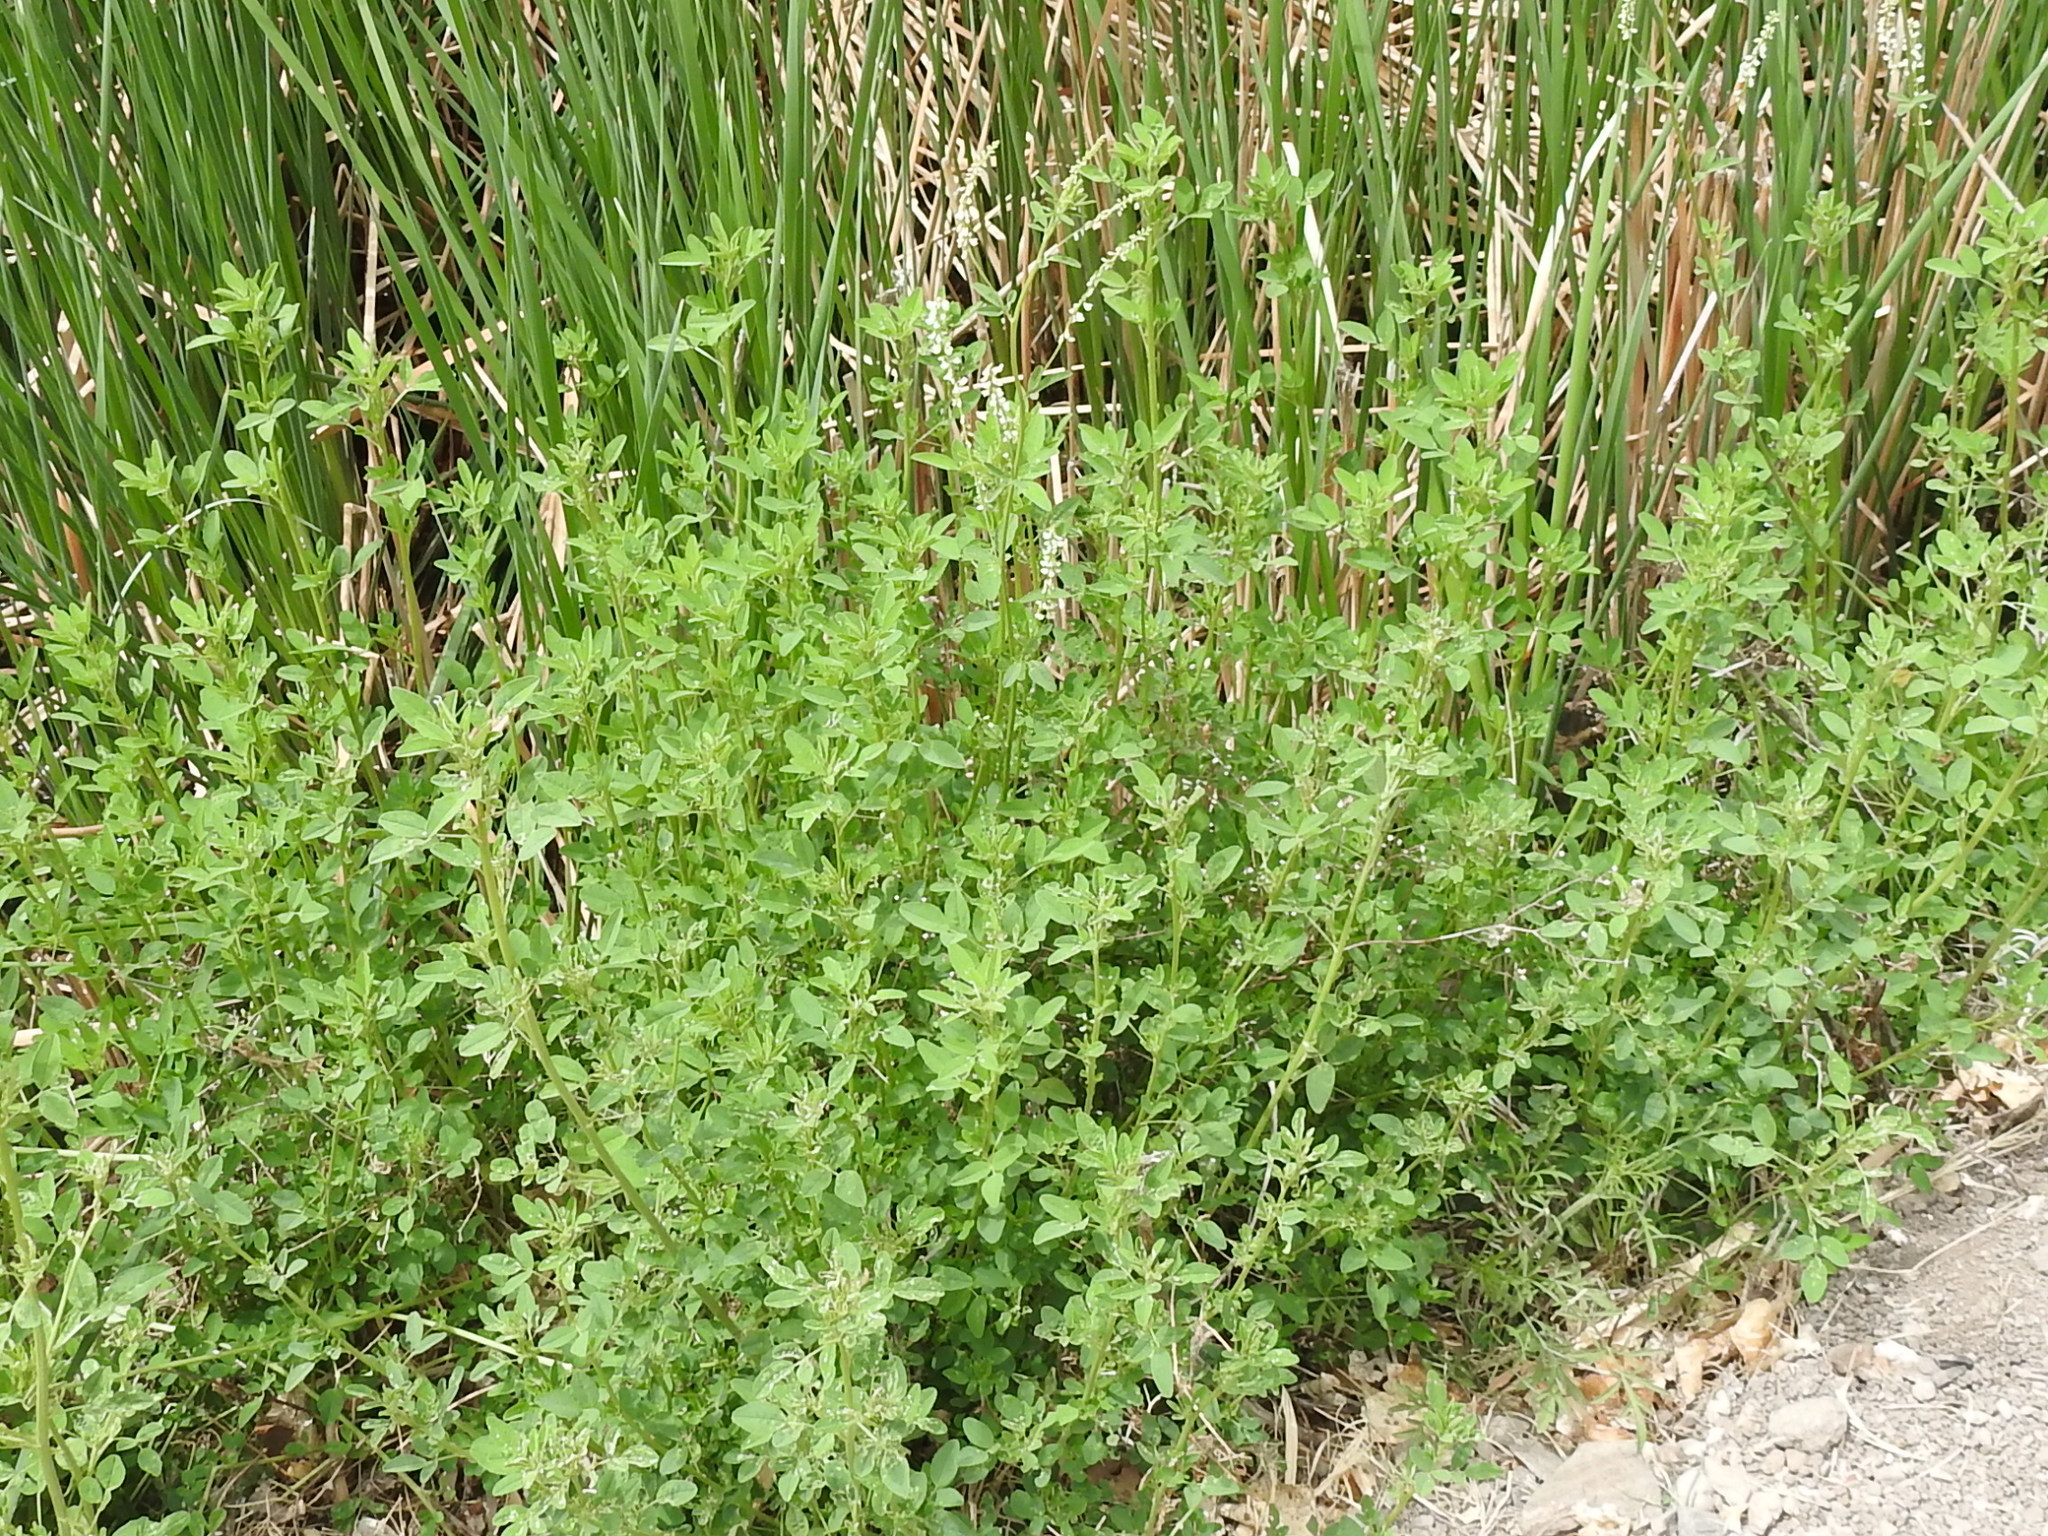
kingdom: Plantae
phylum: Tracheophyta
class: Magnoliopsida
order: Fabales
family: Fabaceae
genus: Melilotus
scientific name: Melilotus albus
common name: White melilot
